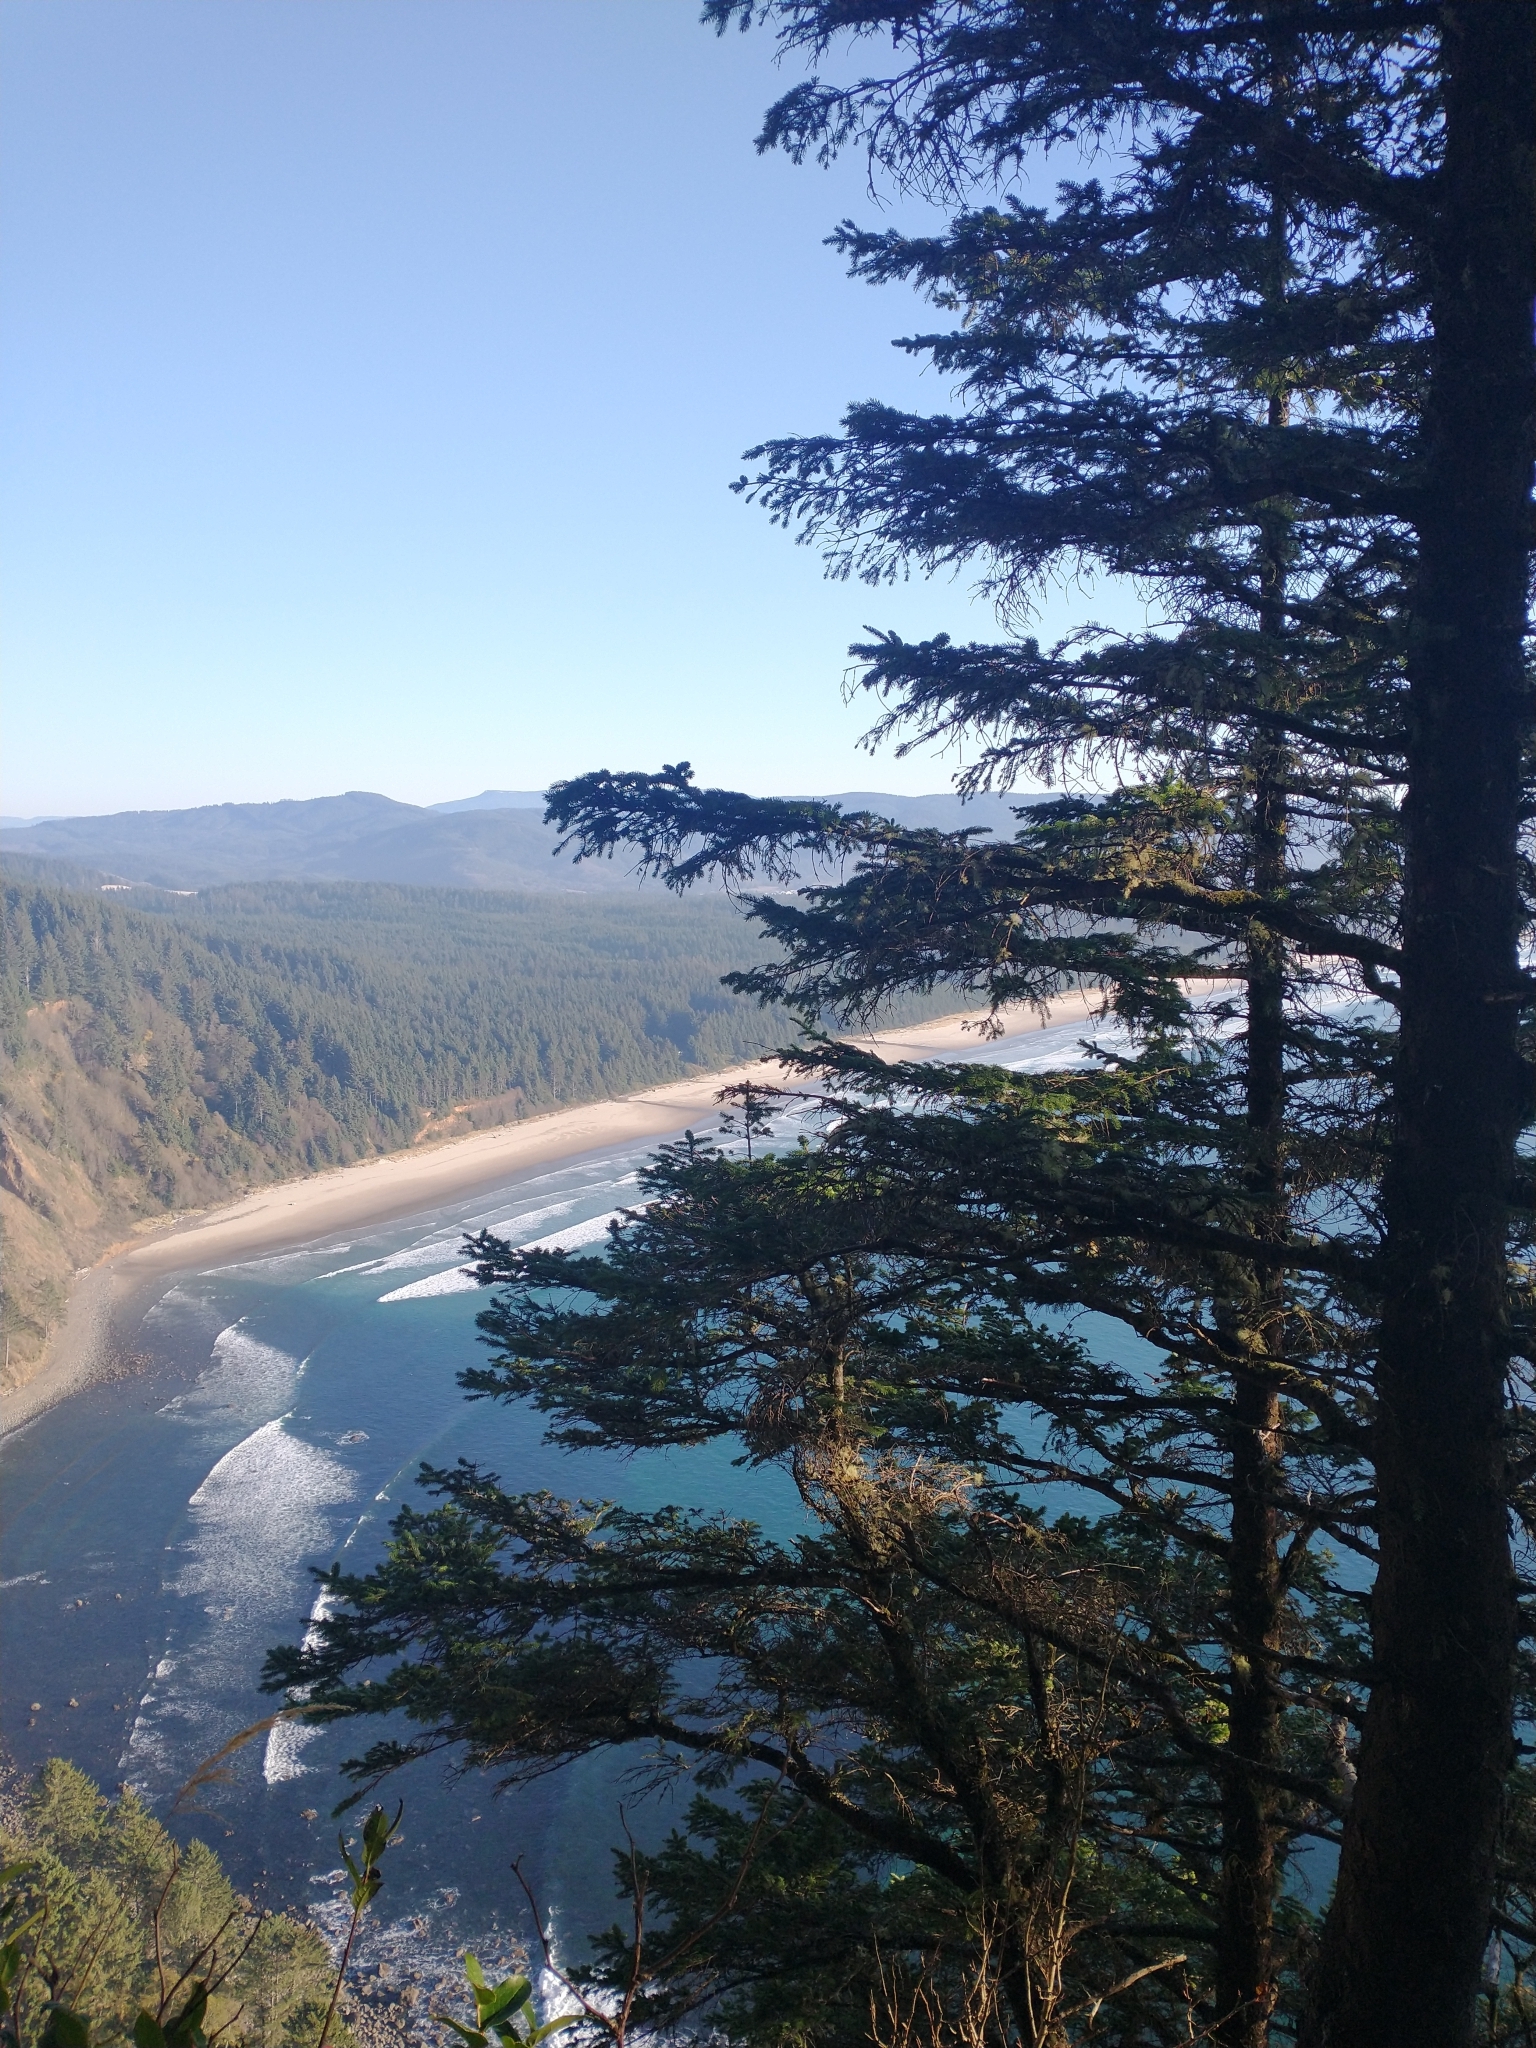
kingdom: Plantae
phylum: Tracheophyta
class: Pinopsida
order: Pinales
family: Pinaceae
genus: Picea
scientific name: Picea sitchensis
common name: Sitka spruce
